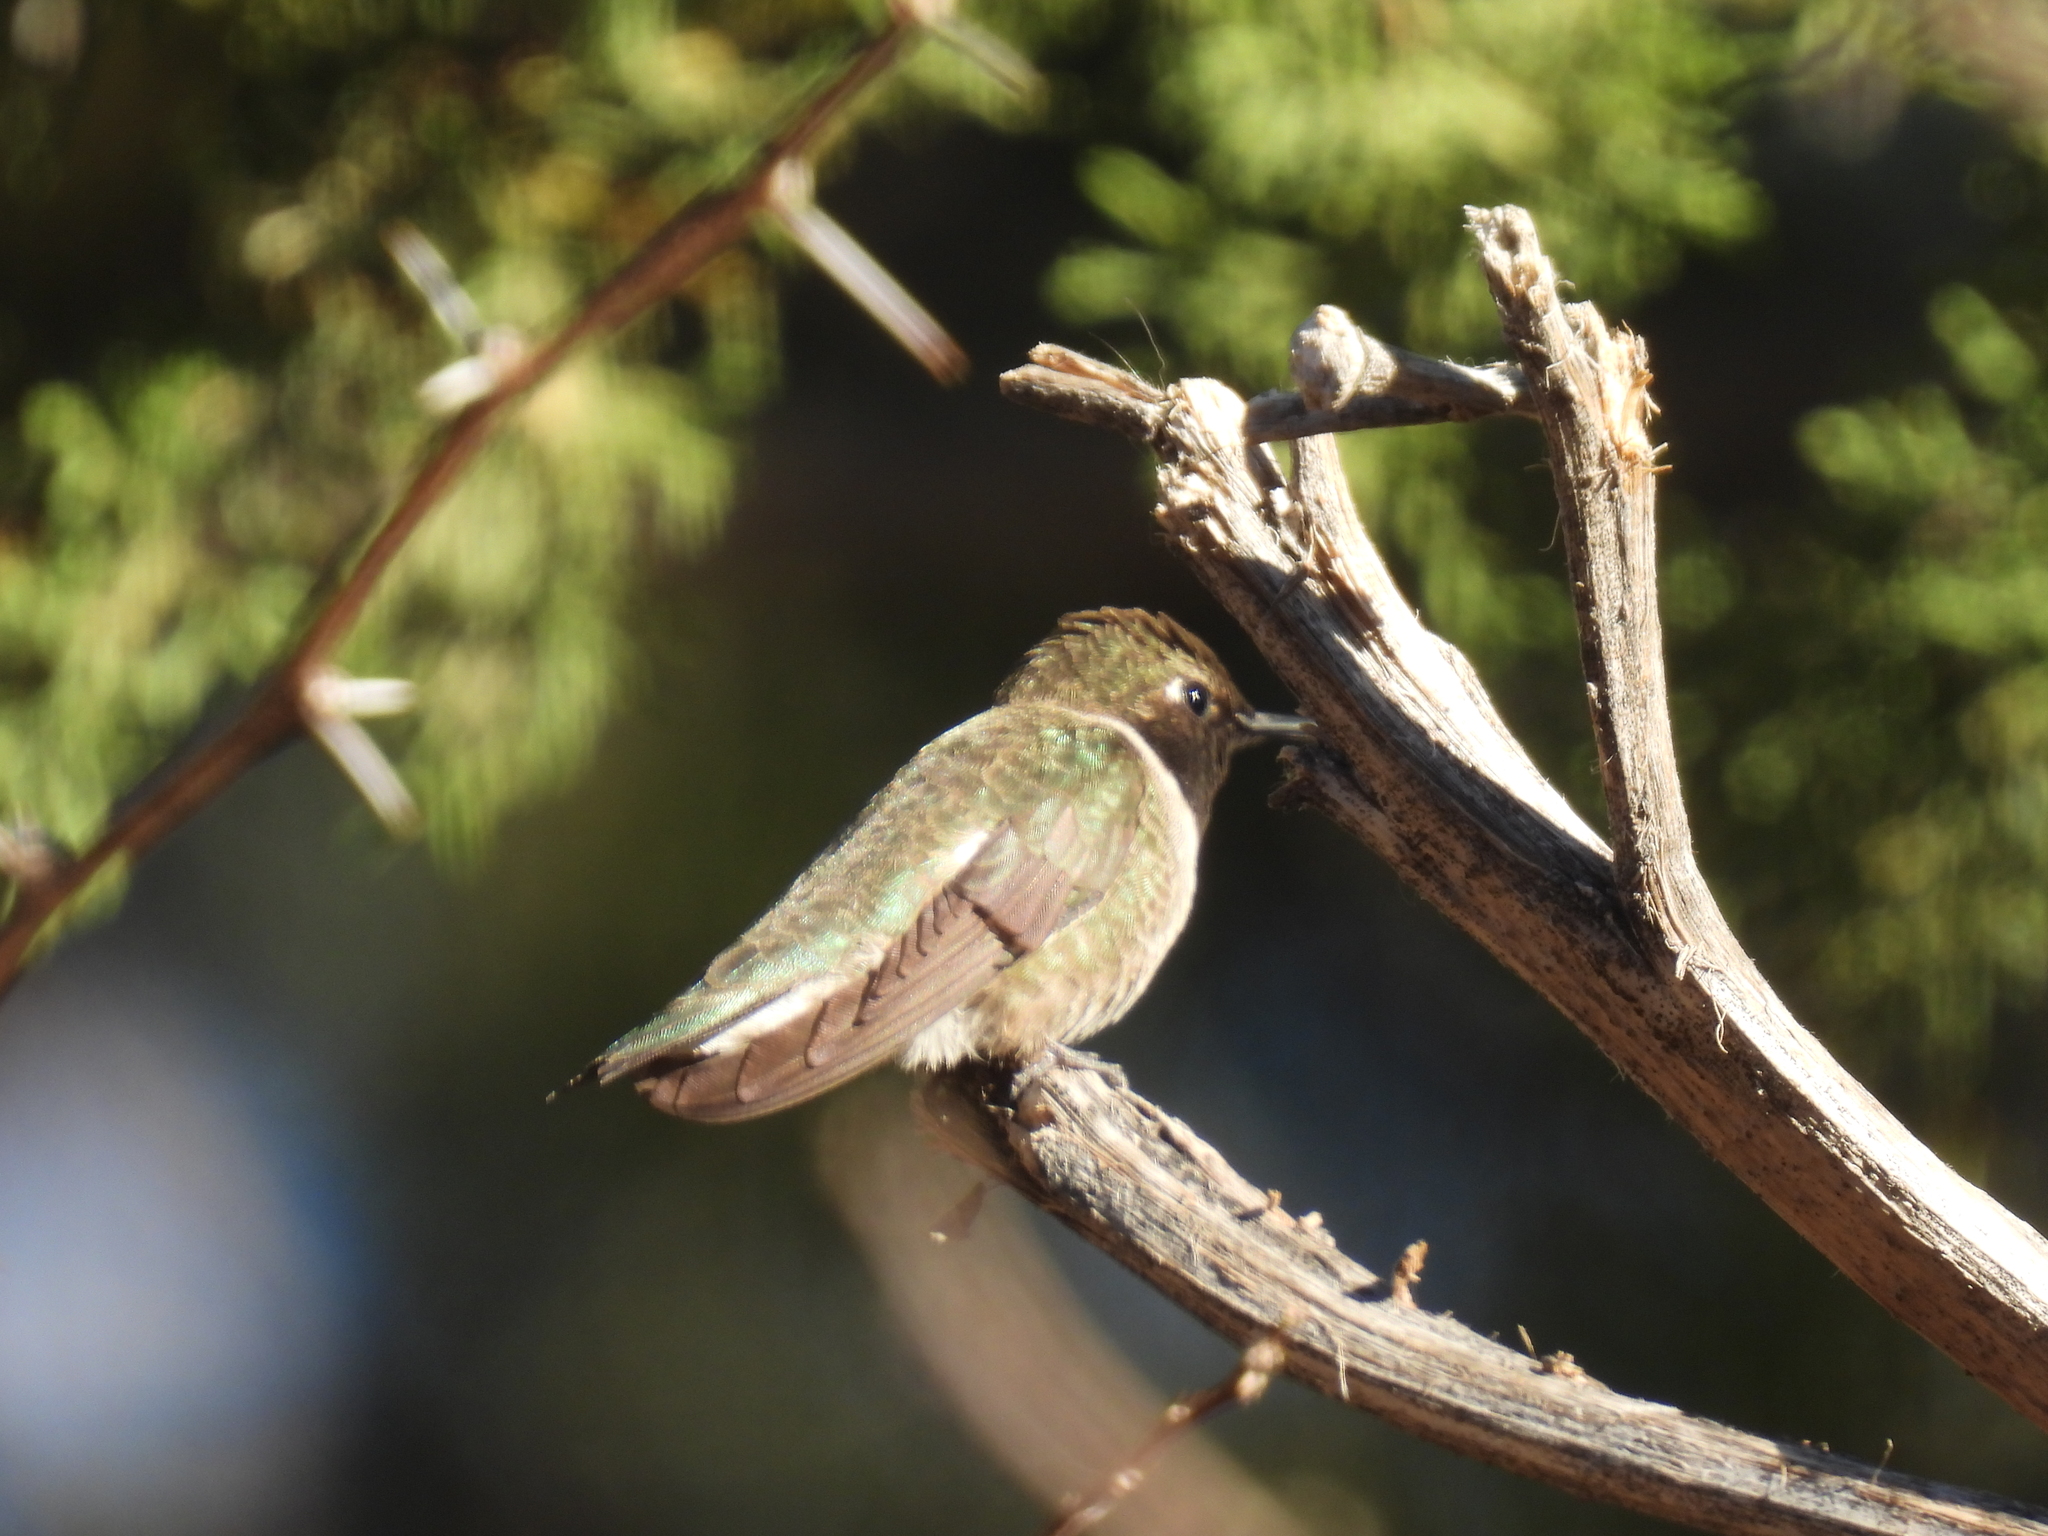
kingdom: Animalia
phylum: Chordata
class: Aves
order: Apodiformes
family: Trochilidae
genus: Archilochus
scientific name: Archilochus alexandri
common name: Black-chinned hummingbird
